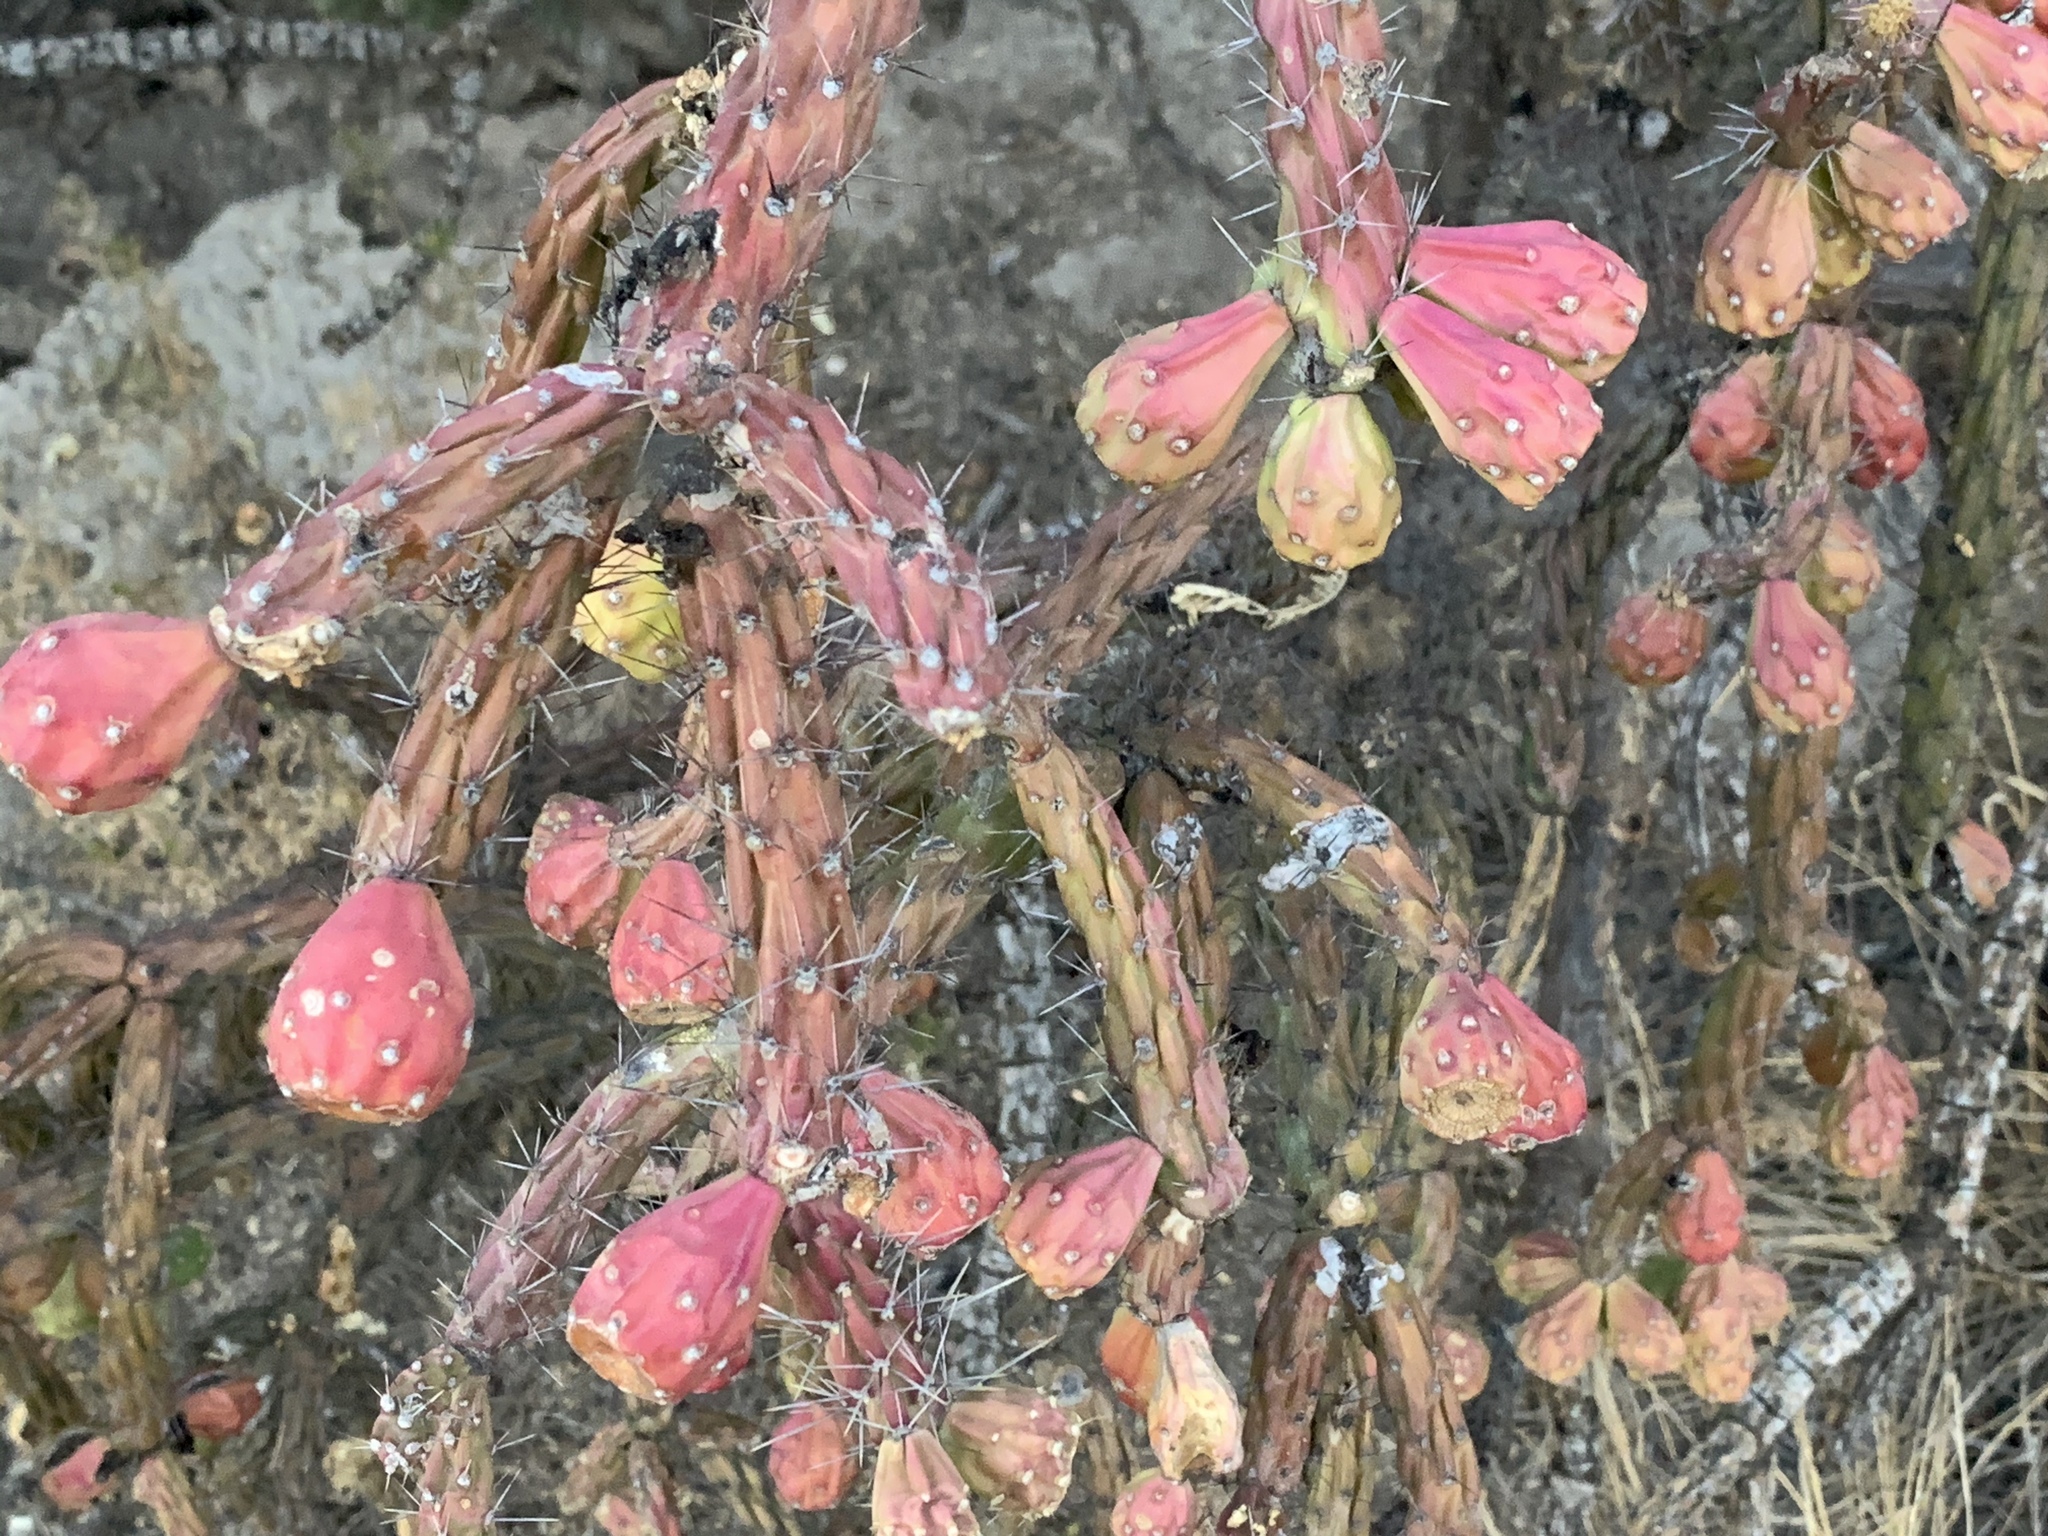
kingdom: Plantae
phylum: Tracheophyta
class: Magnoliopsida
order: Caryophyllales
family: Cactaceae
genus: Cylindropuntia
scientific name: Cylindropuntia thurberi
